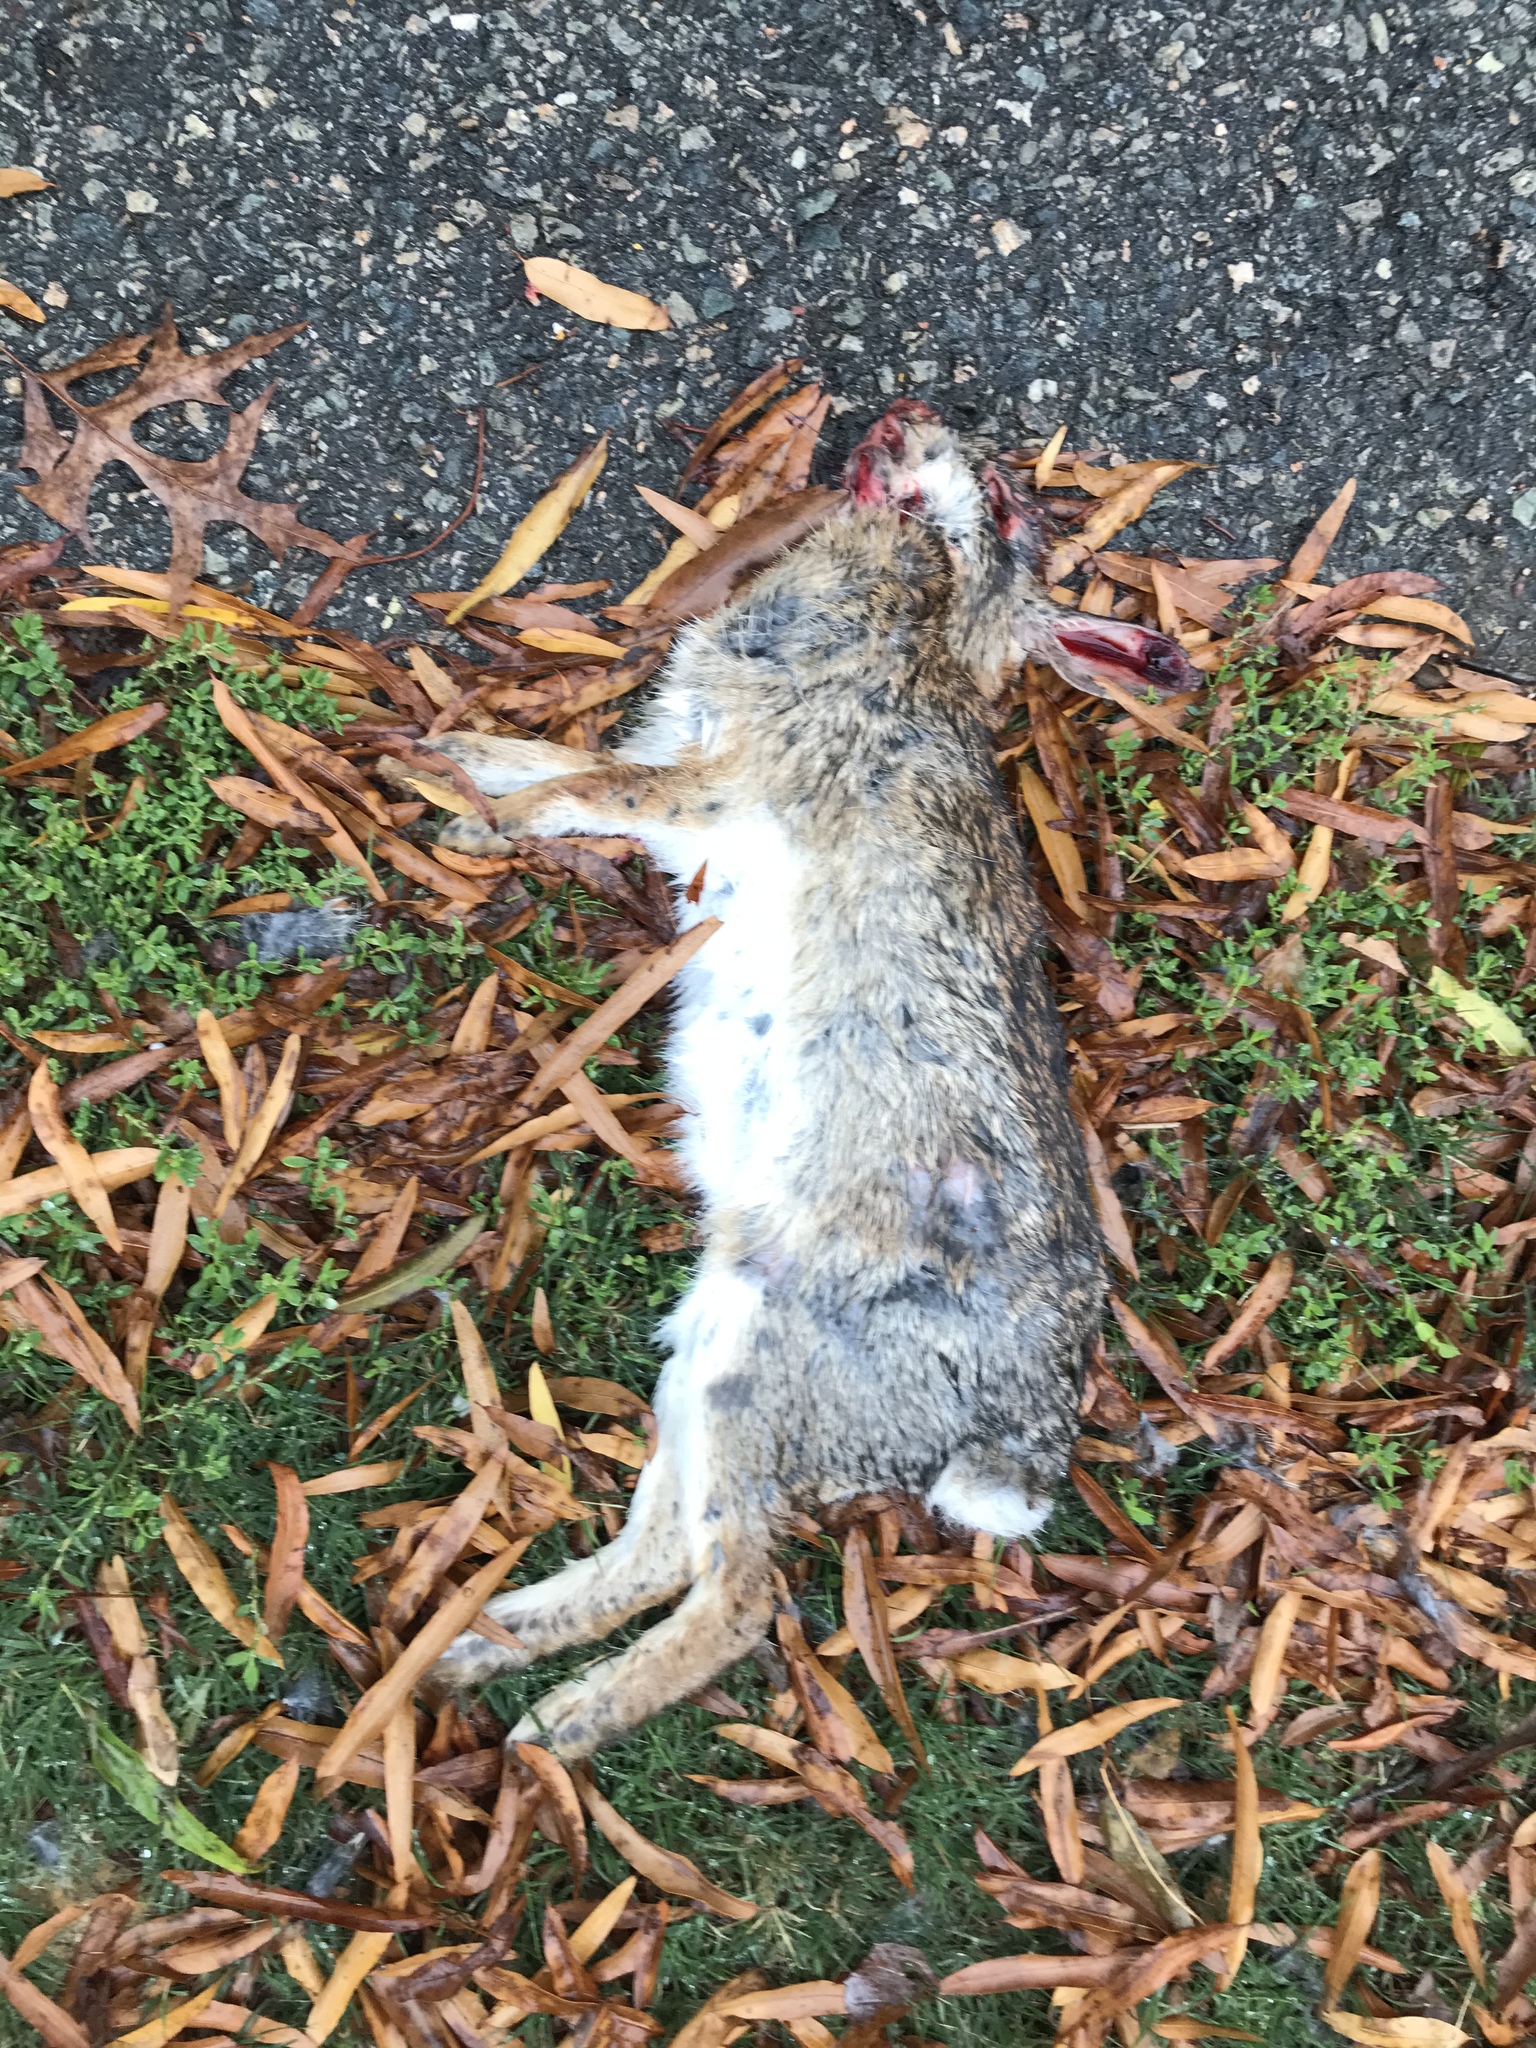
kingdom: Animalia
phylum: Chordata
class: Mammalia
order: Lagomorpha
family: Leporidae
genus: Sylvilagus
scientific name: Sylvilagus floridanus
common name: Eastern cottontail
